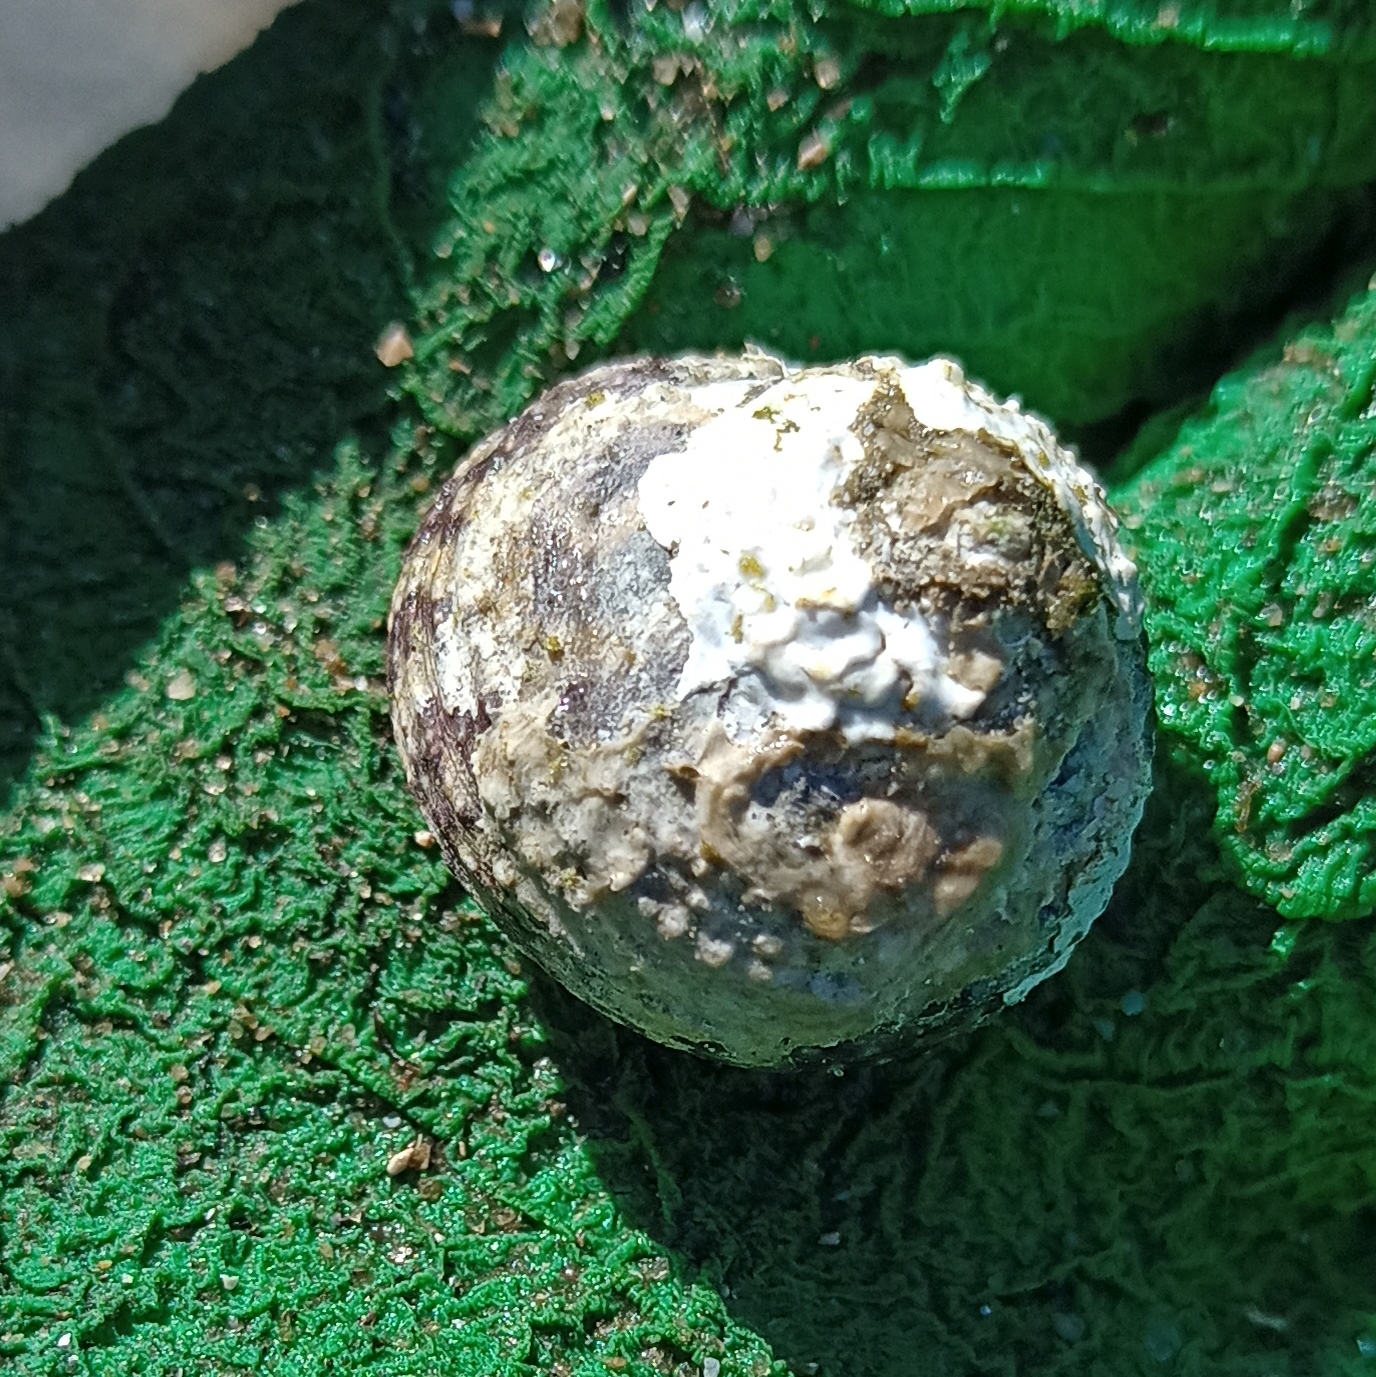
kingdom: Animalia
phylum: Mollusca
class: Gastropoda
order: Trochida
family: Tegulidae
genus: Agathistoma
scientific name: Agathistoma viridulum
